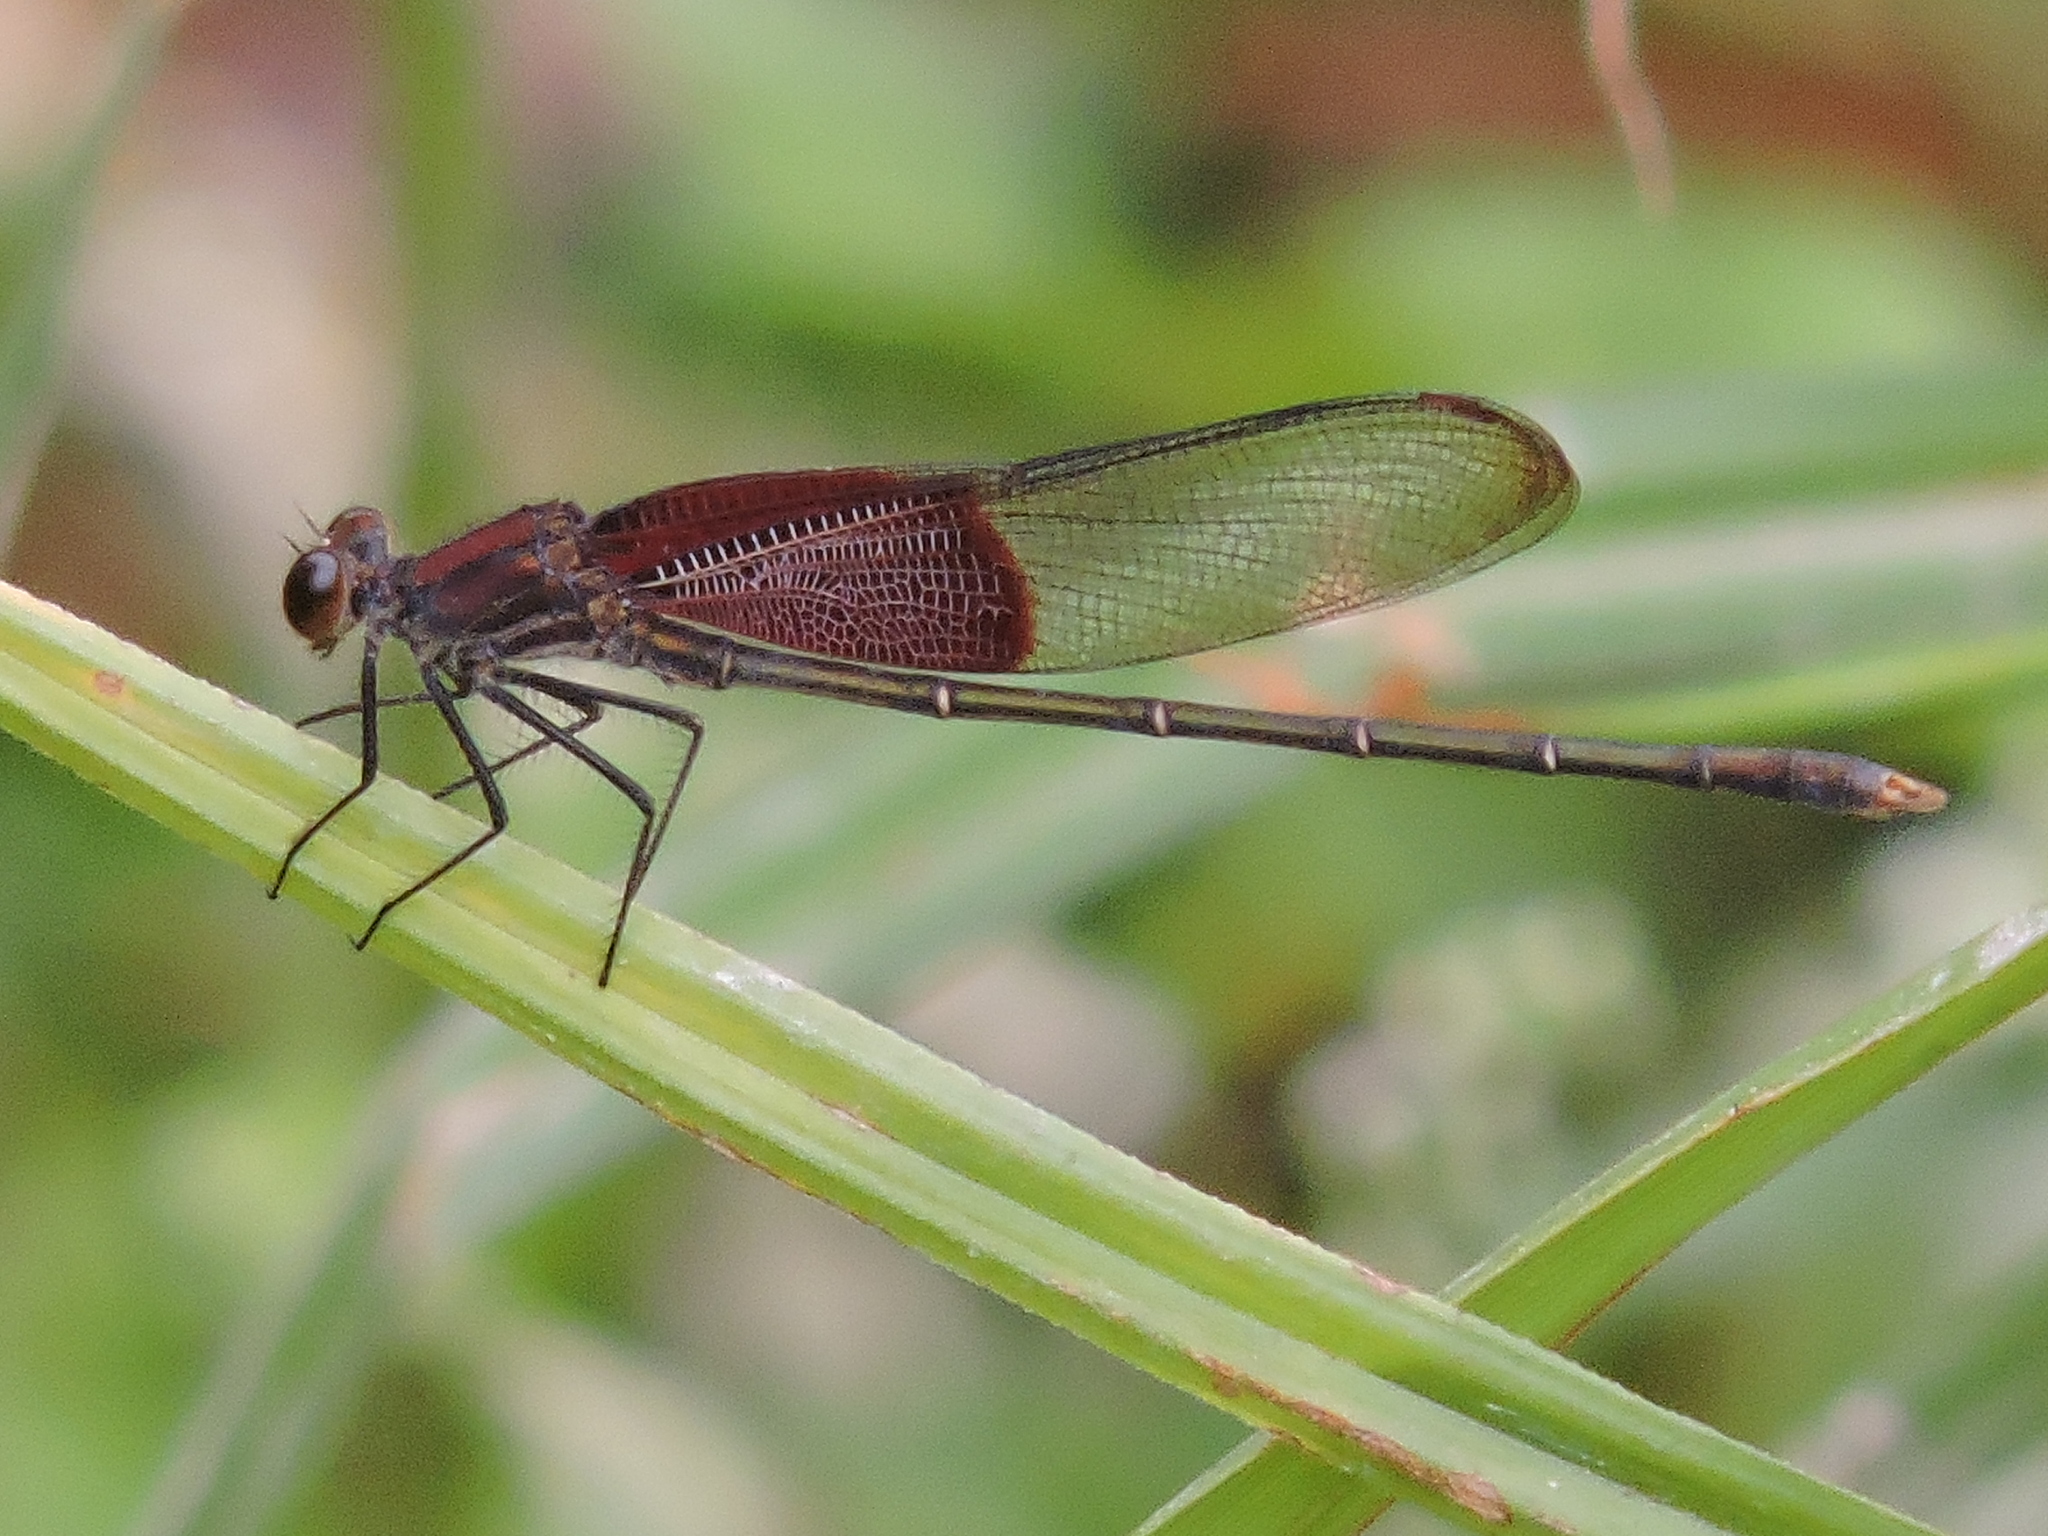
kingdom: Animalia
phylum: Arthropoda
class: Insecta
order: Odonata
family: Calopterygidae
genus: Hetaerina
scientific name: Hetaerina americana
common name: American rubyspot
